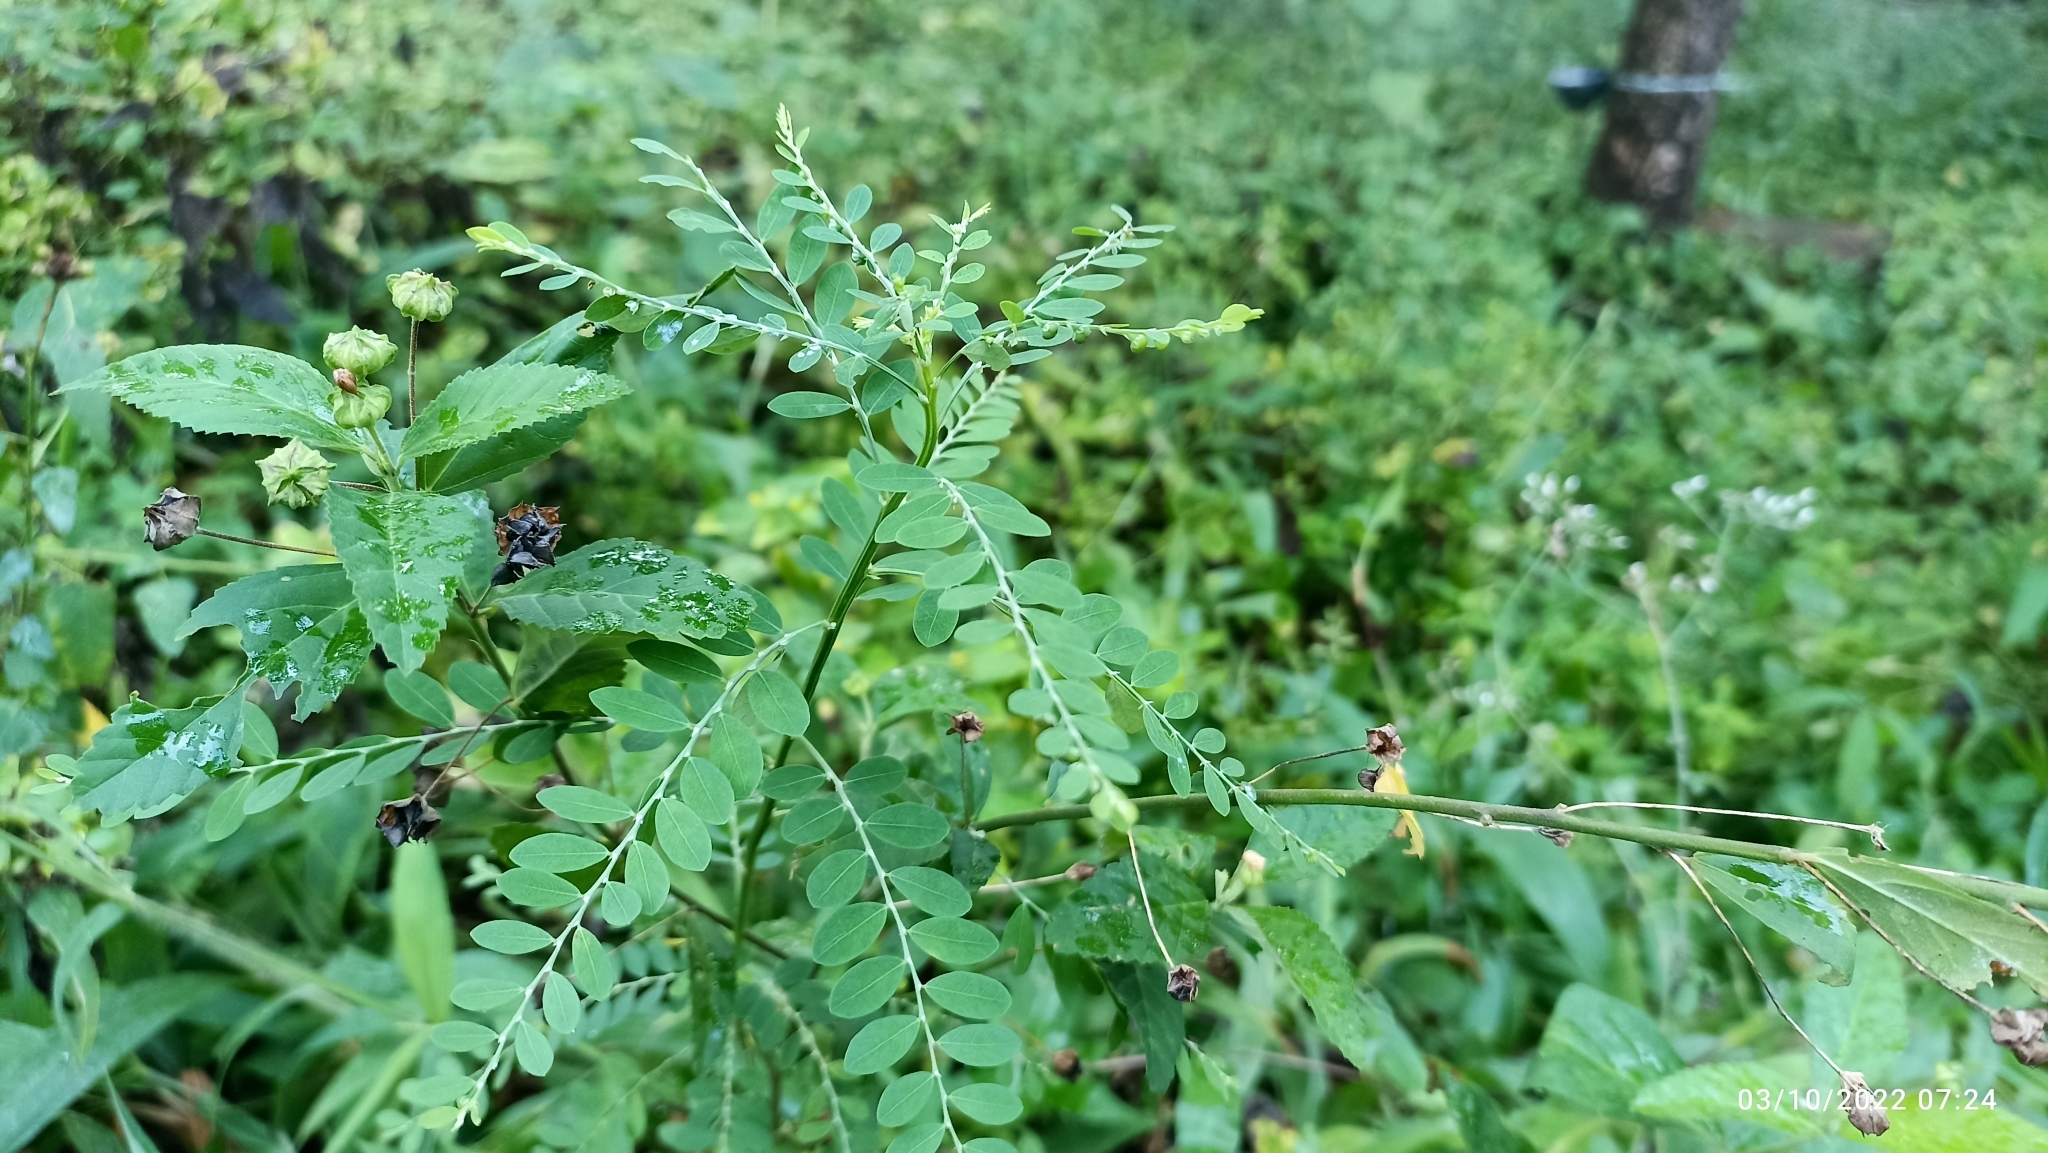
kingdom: Plantae
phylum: Tracheophyta
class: Magnoliopsida
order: Malpighiales
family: Phyllanthaceae
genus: Phyllanthus
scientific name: Phyllanthus tenellus
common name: Mascarene island leaf-flower
